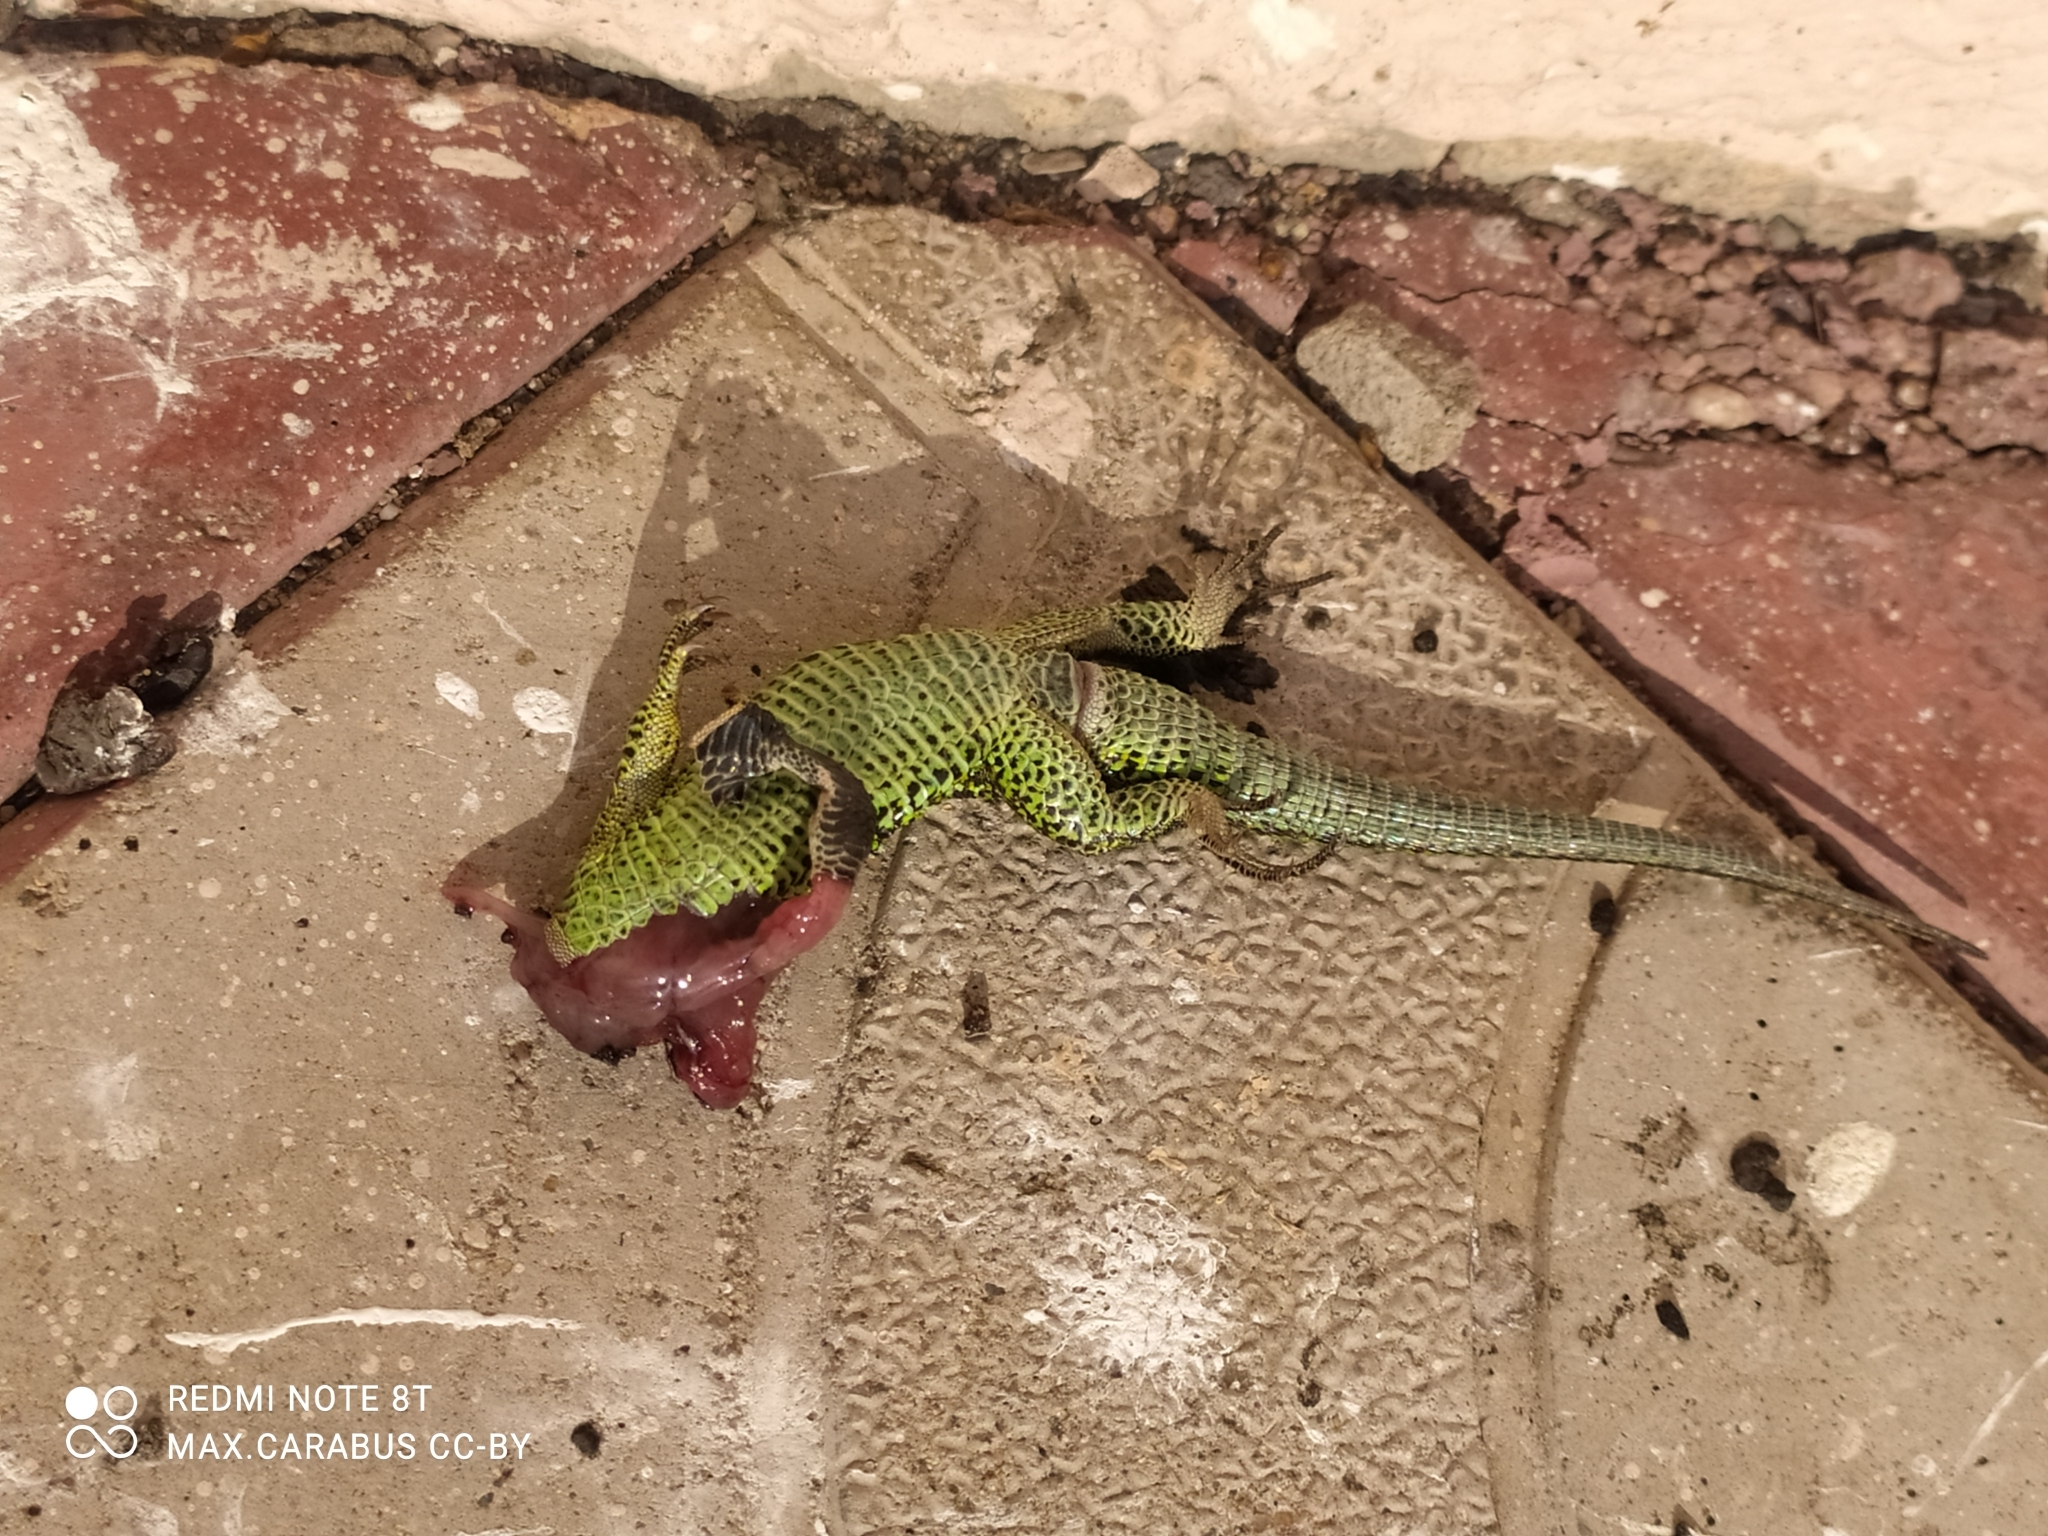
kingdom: Animalia
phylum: Chordata
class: Squamata
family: Lacertidae
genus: Lacerta
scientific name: Lacerta agilis
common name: Sand lizard
